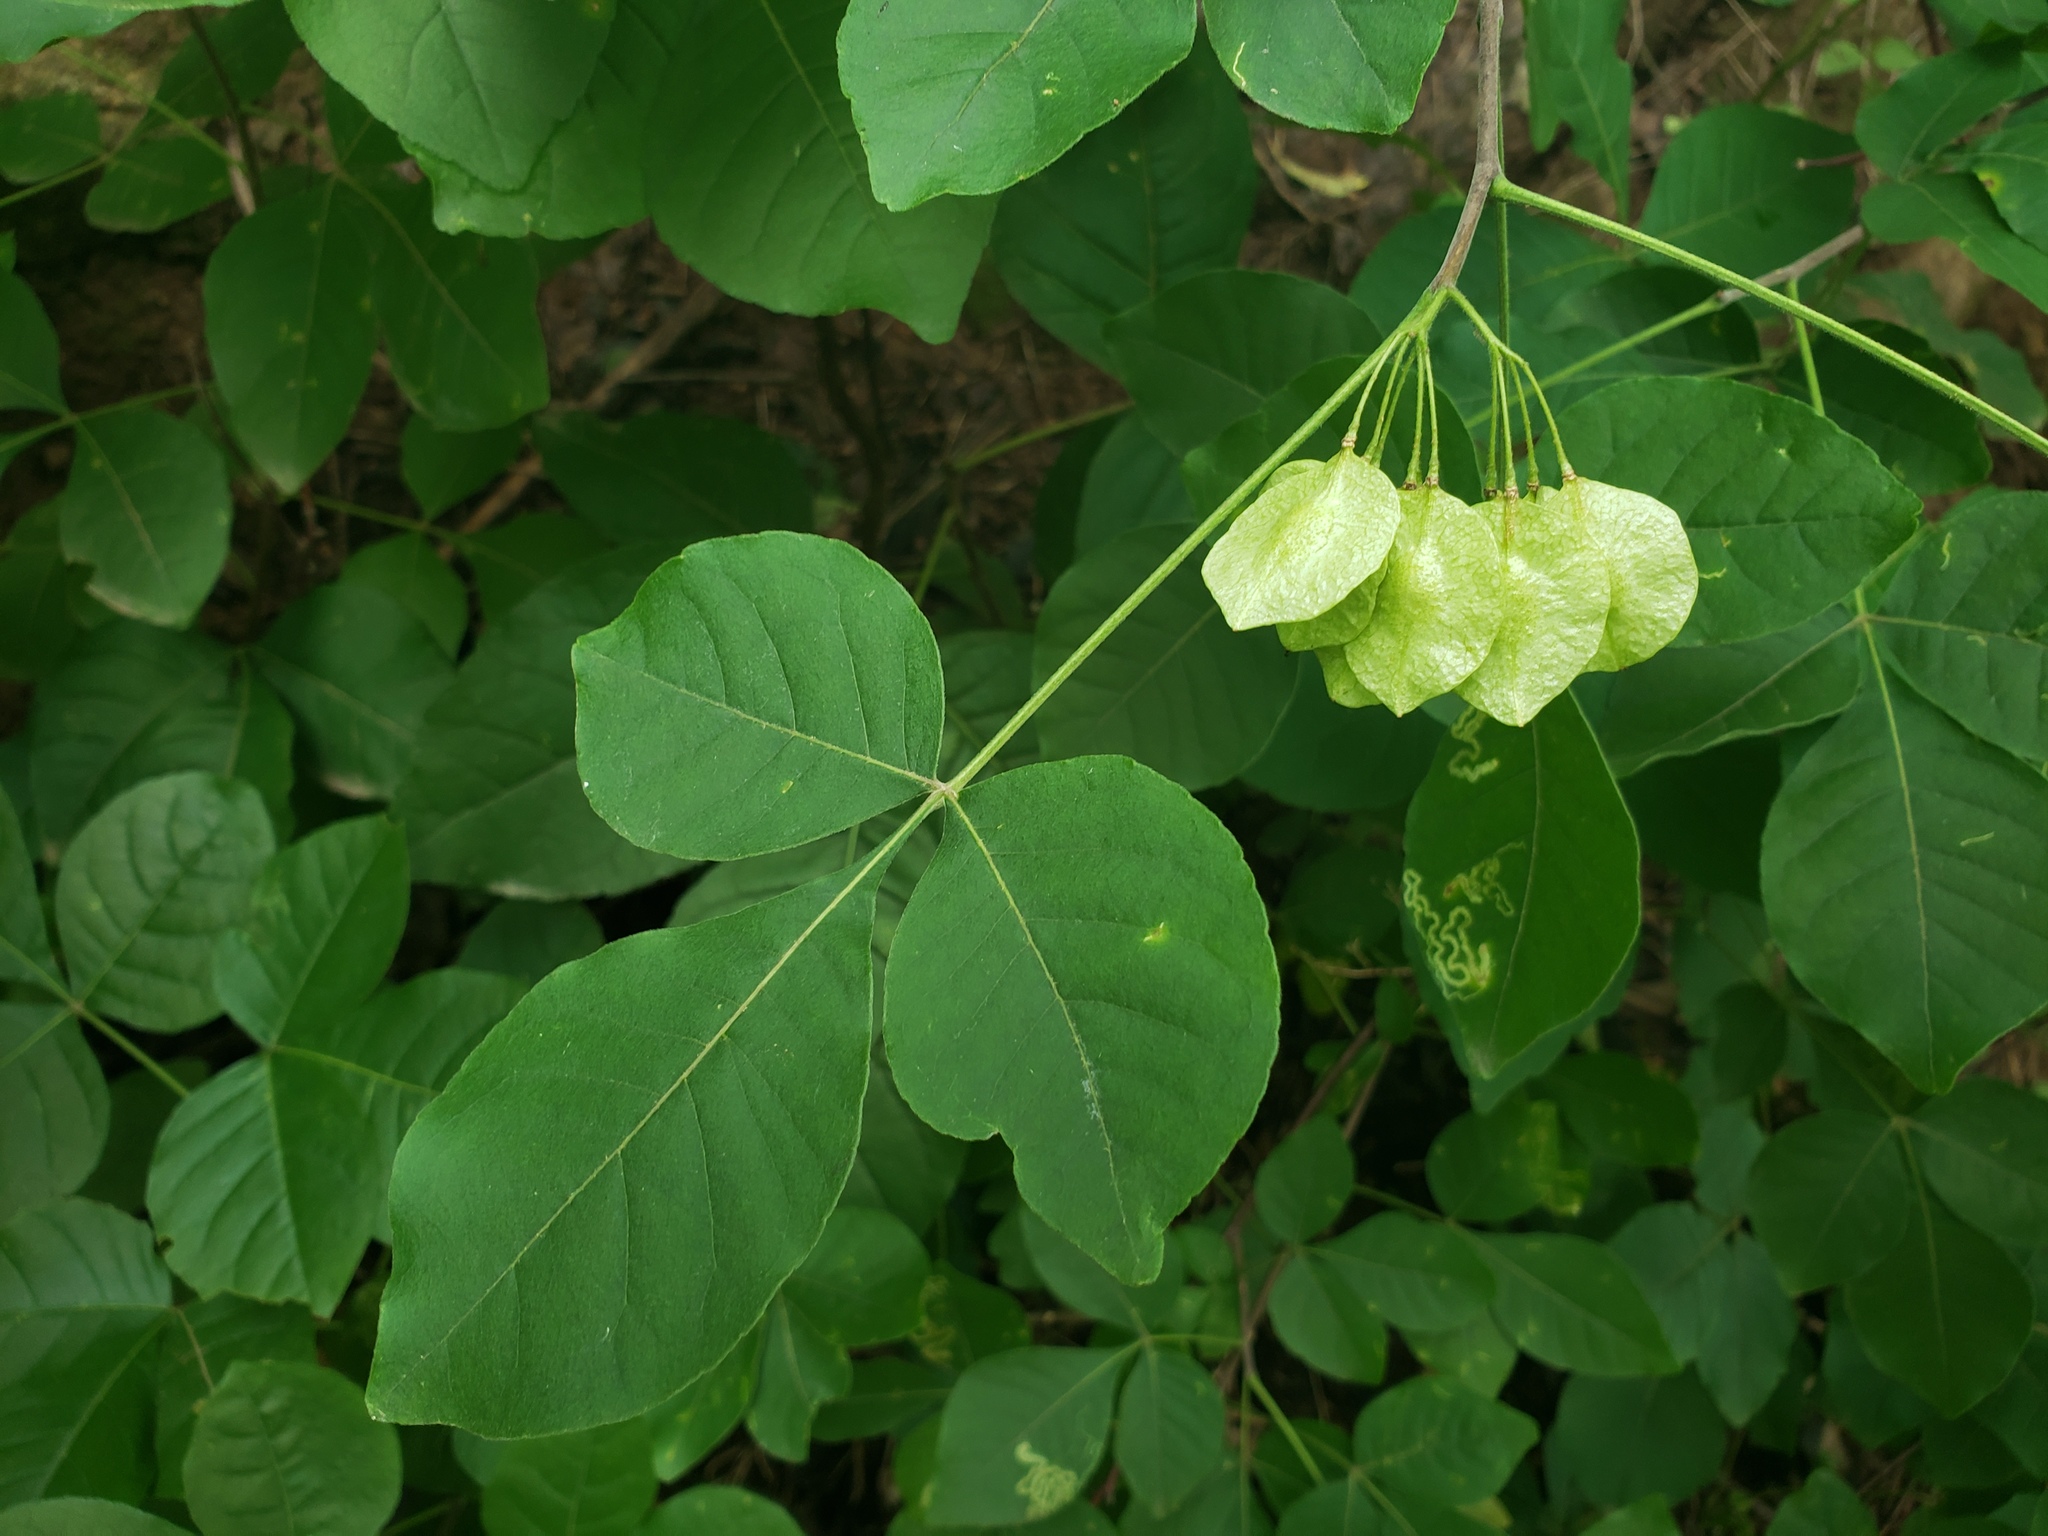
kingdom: Plantae
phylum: Tracheophyta
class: Magnoliopsida
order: Sapindales
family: Rutaceae
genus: Ptelea
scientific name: Ptelea trifoliata
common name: Common hop-tree
